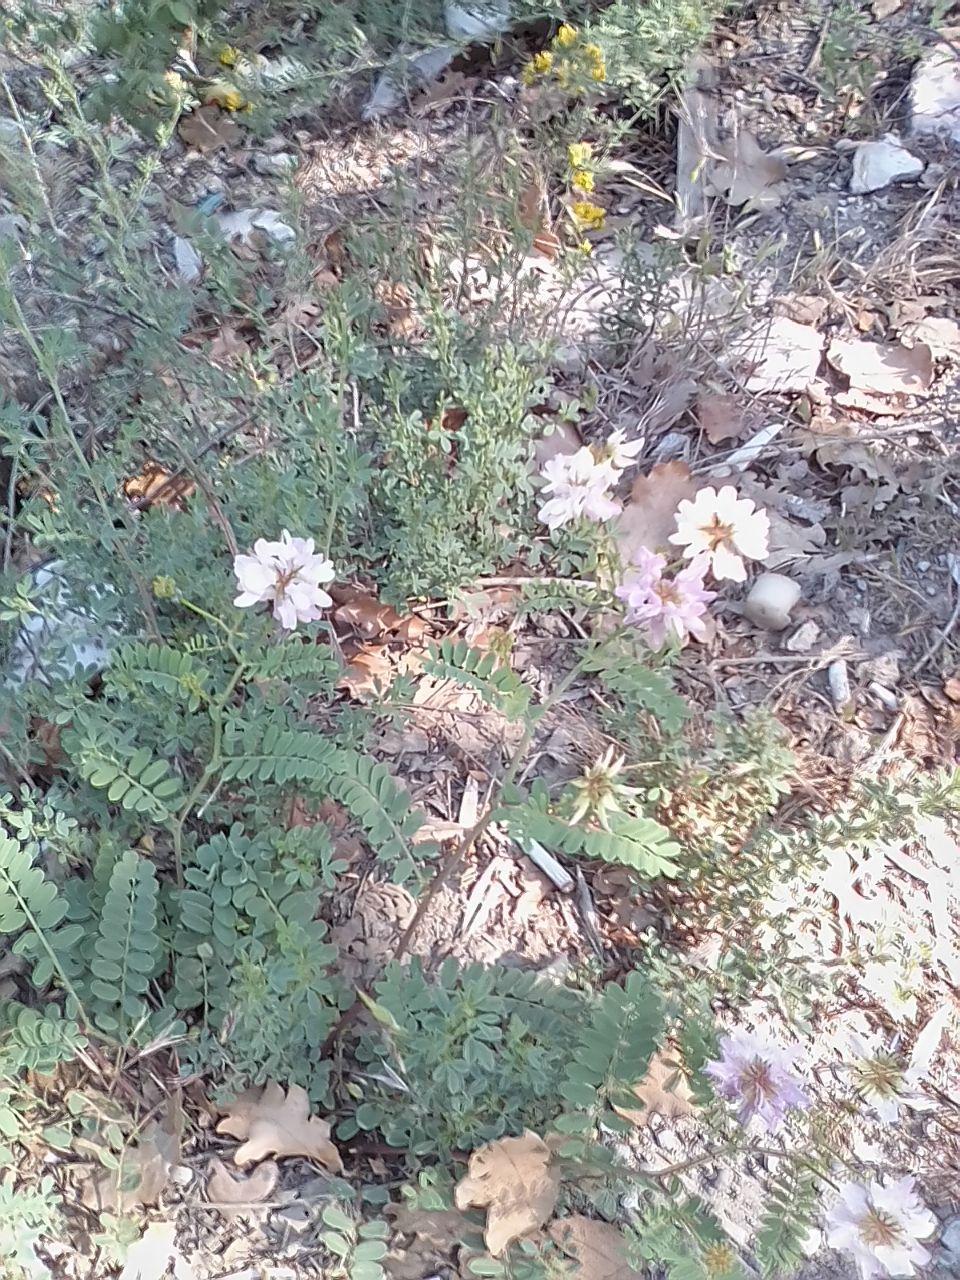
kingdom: Plantae
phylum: Tracheophyta
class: Magnoliopsida
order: Fabales
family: Fabaceae
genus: Coronilla
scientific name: Coronilla varia
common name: Crownvetch
